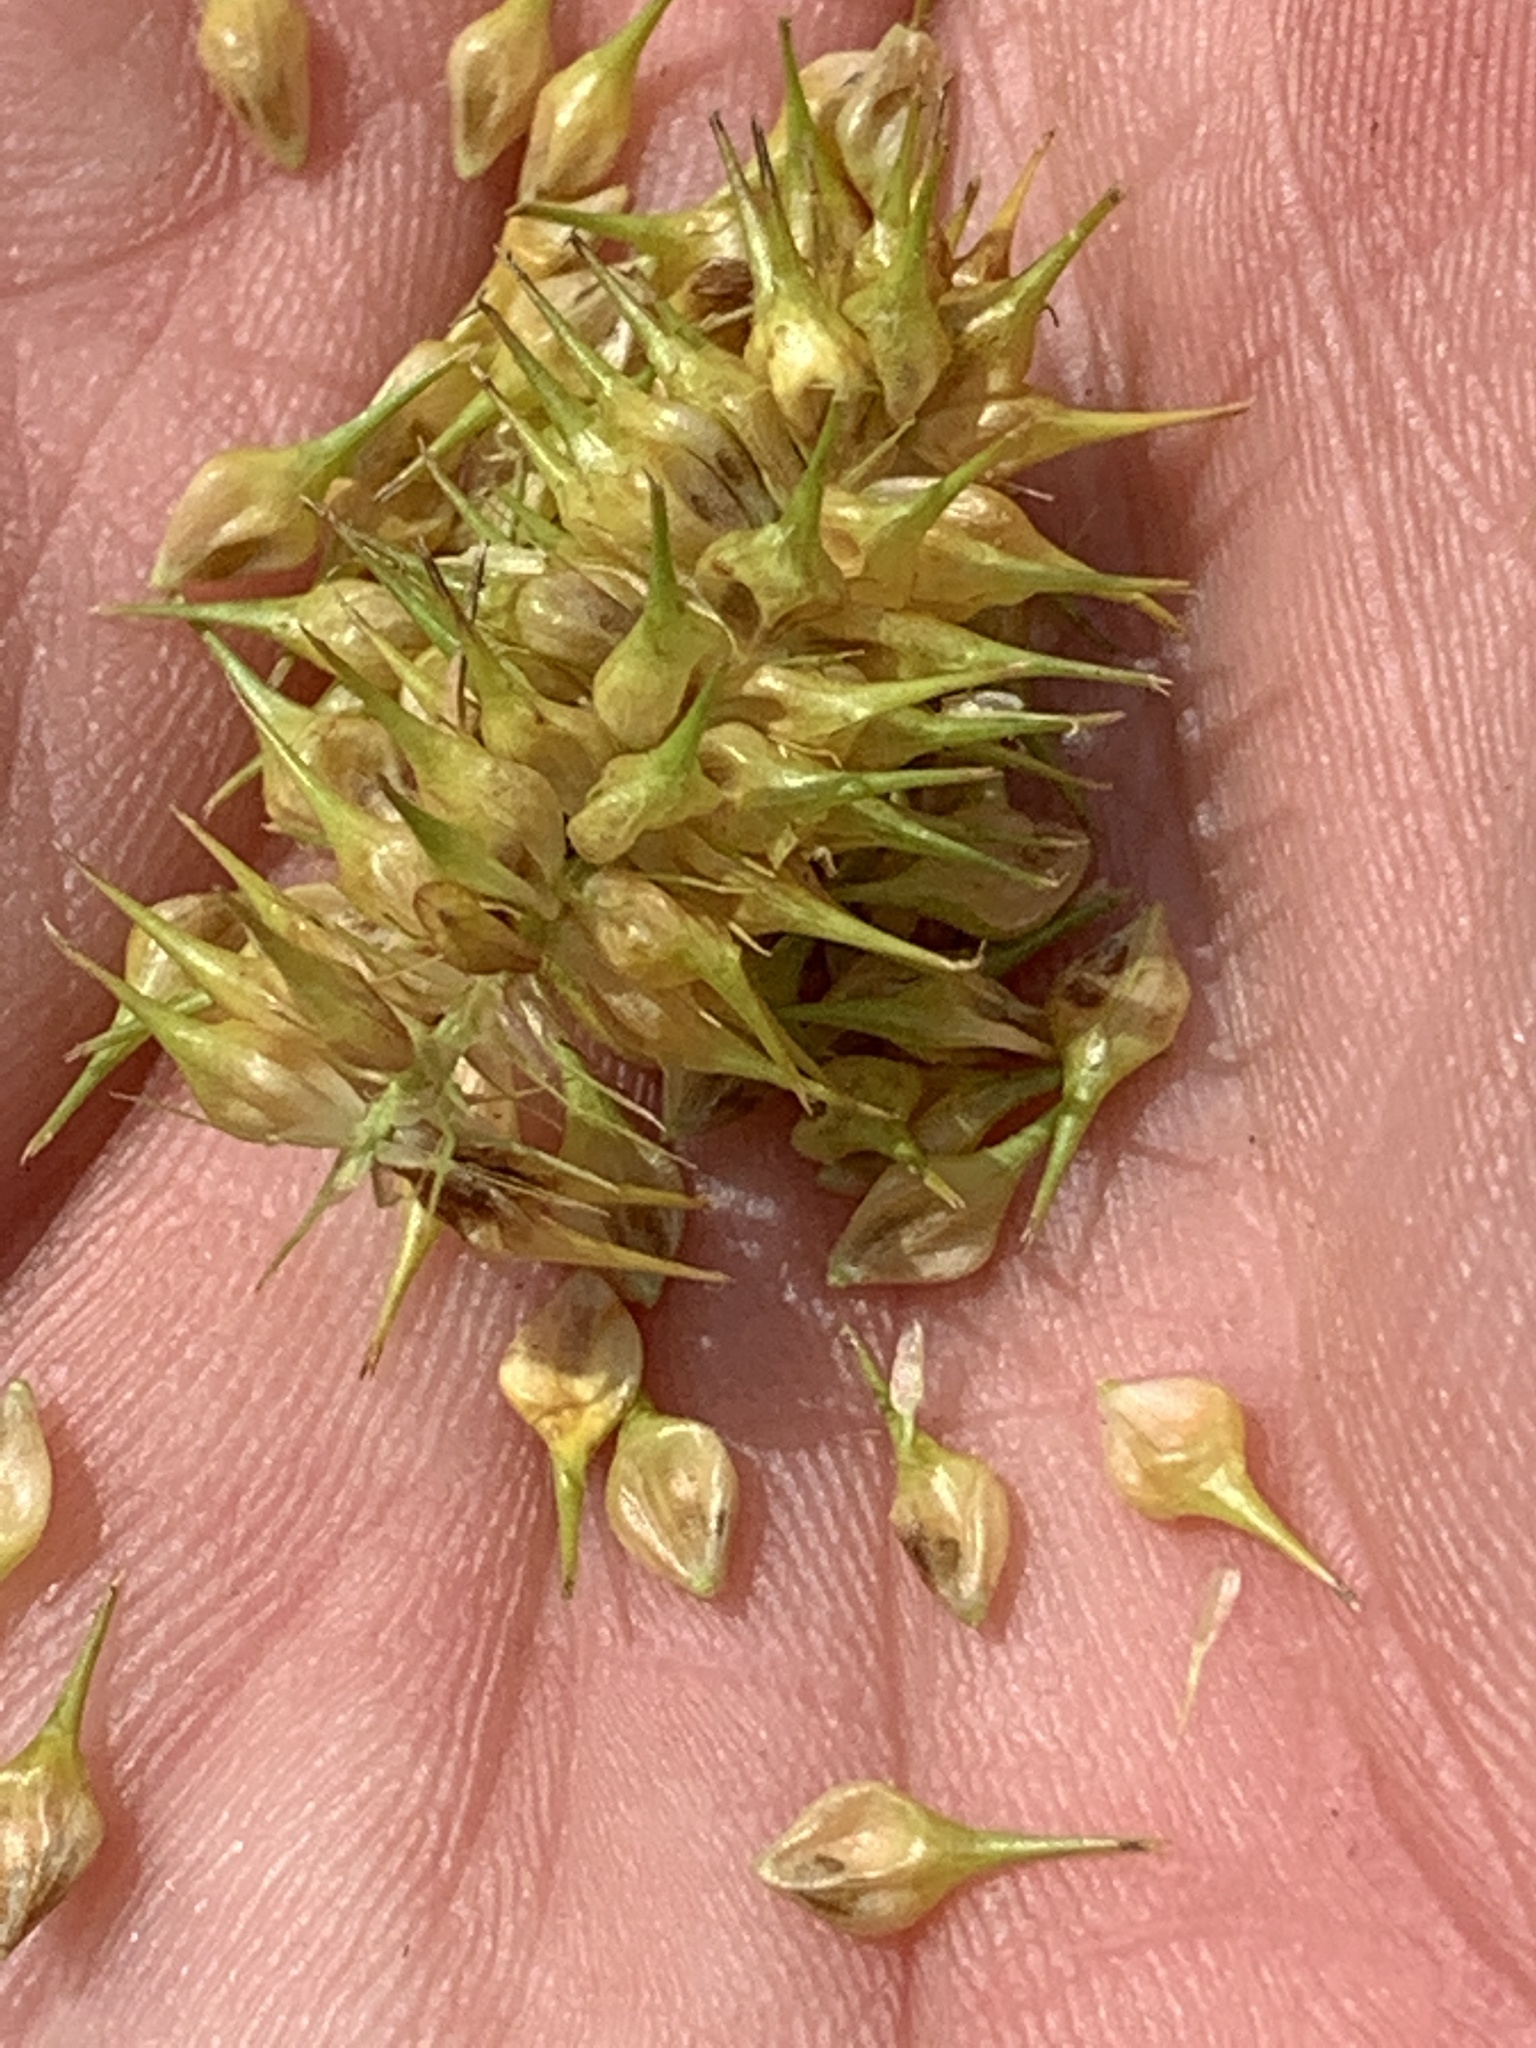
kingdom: Plantae
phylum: Tracheophyta
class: Liliopsida
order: Poales
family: Cyperaceae
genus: Carex
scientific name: Carex lurida
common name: Sallow sedge
